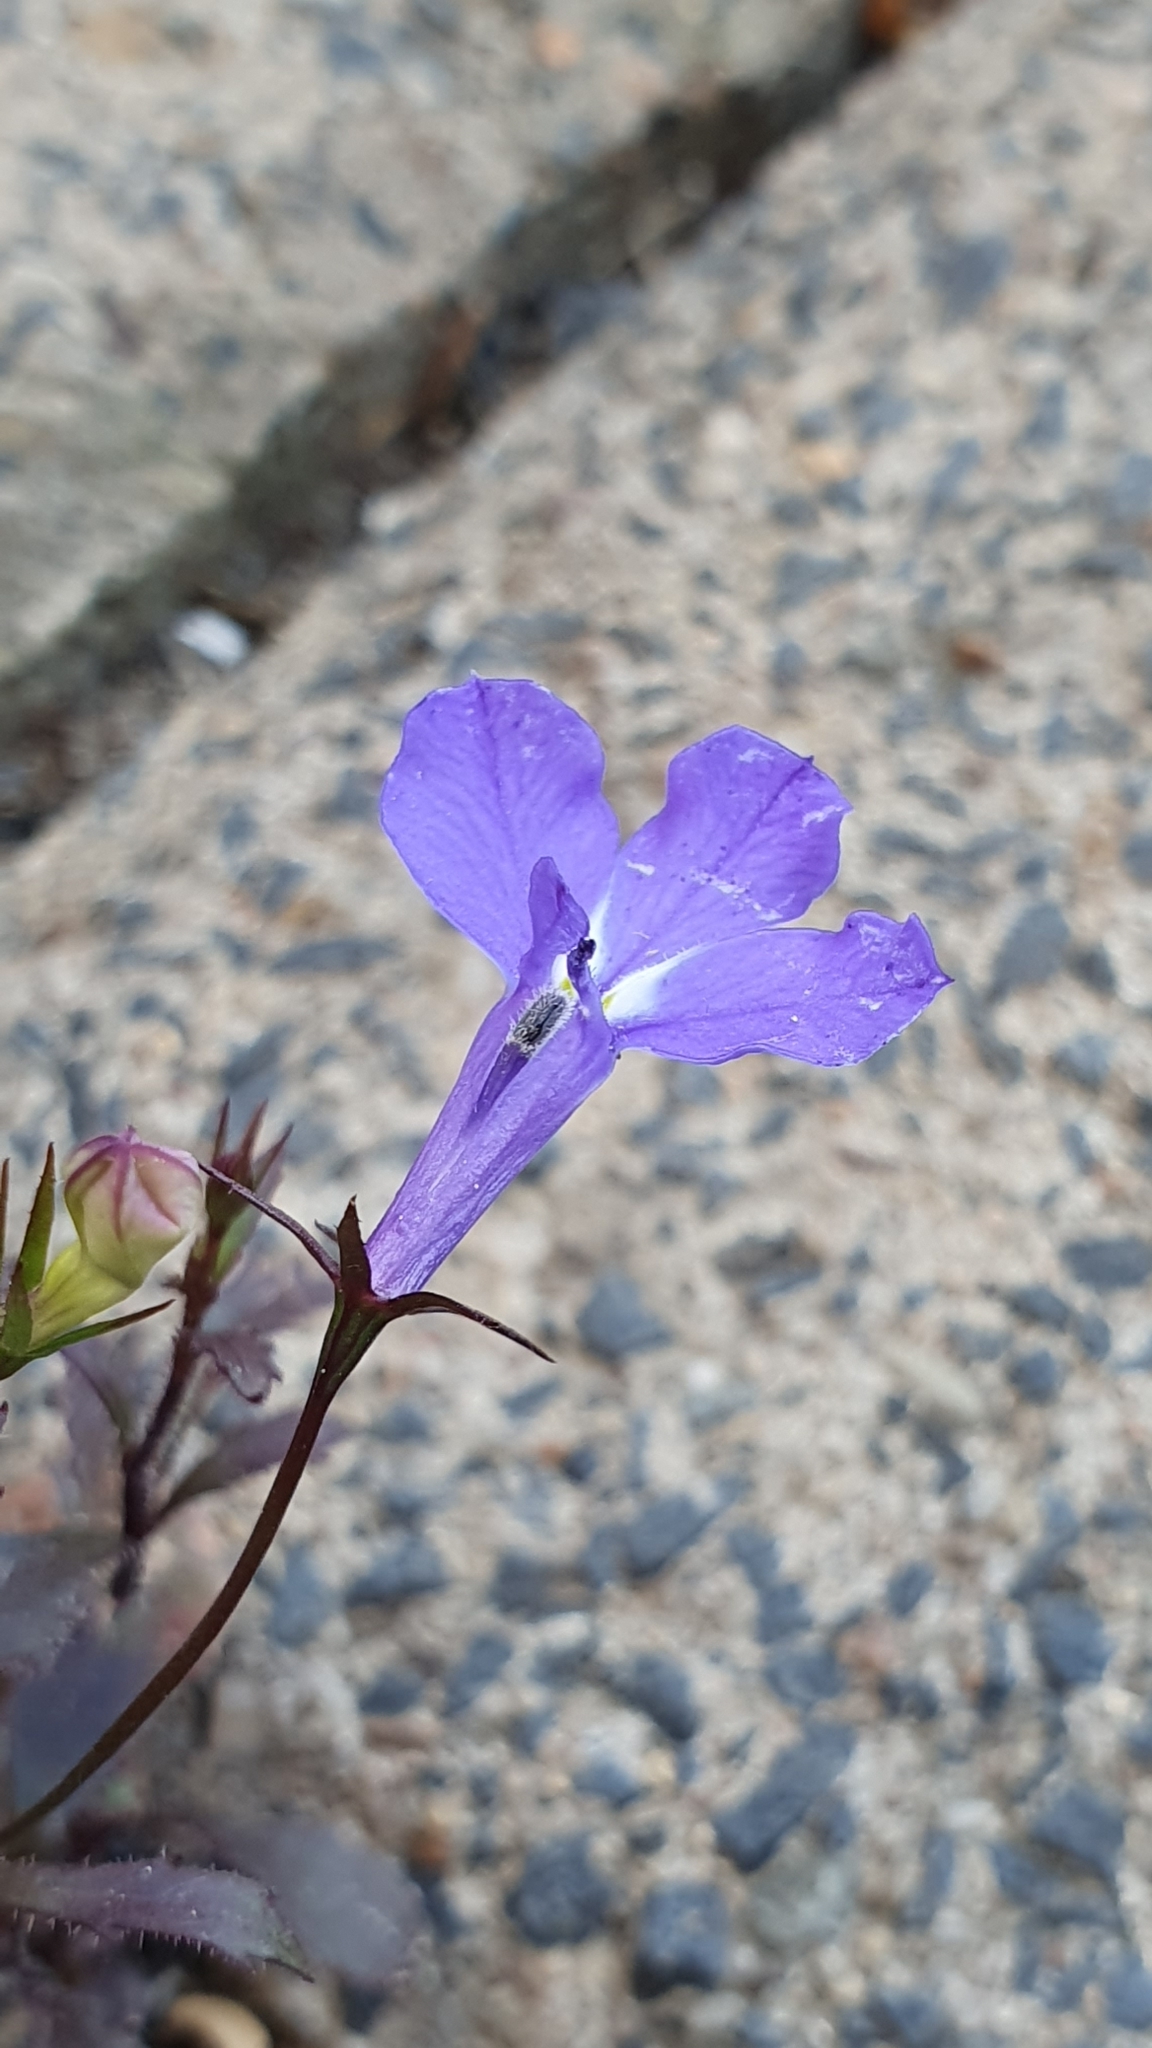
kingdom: Plantae
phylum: Tracheophyta
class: Magnoliopsida
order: Asterales
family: Campanulaceae
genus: Lobelia
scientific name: Lobelia erinus
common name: Edging lobelia
